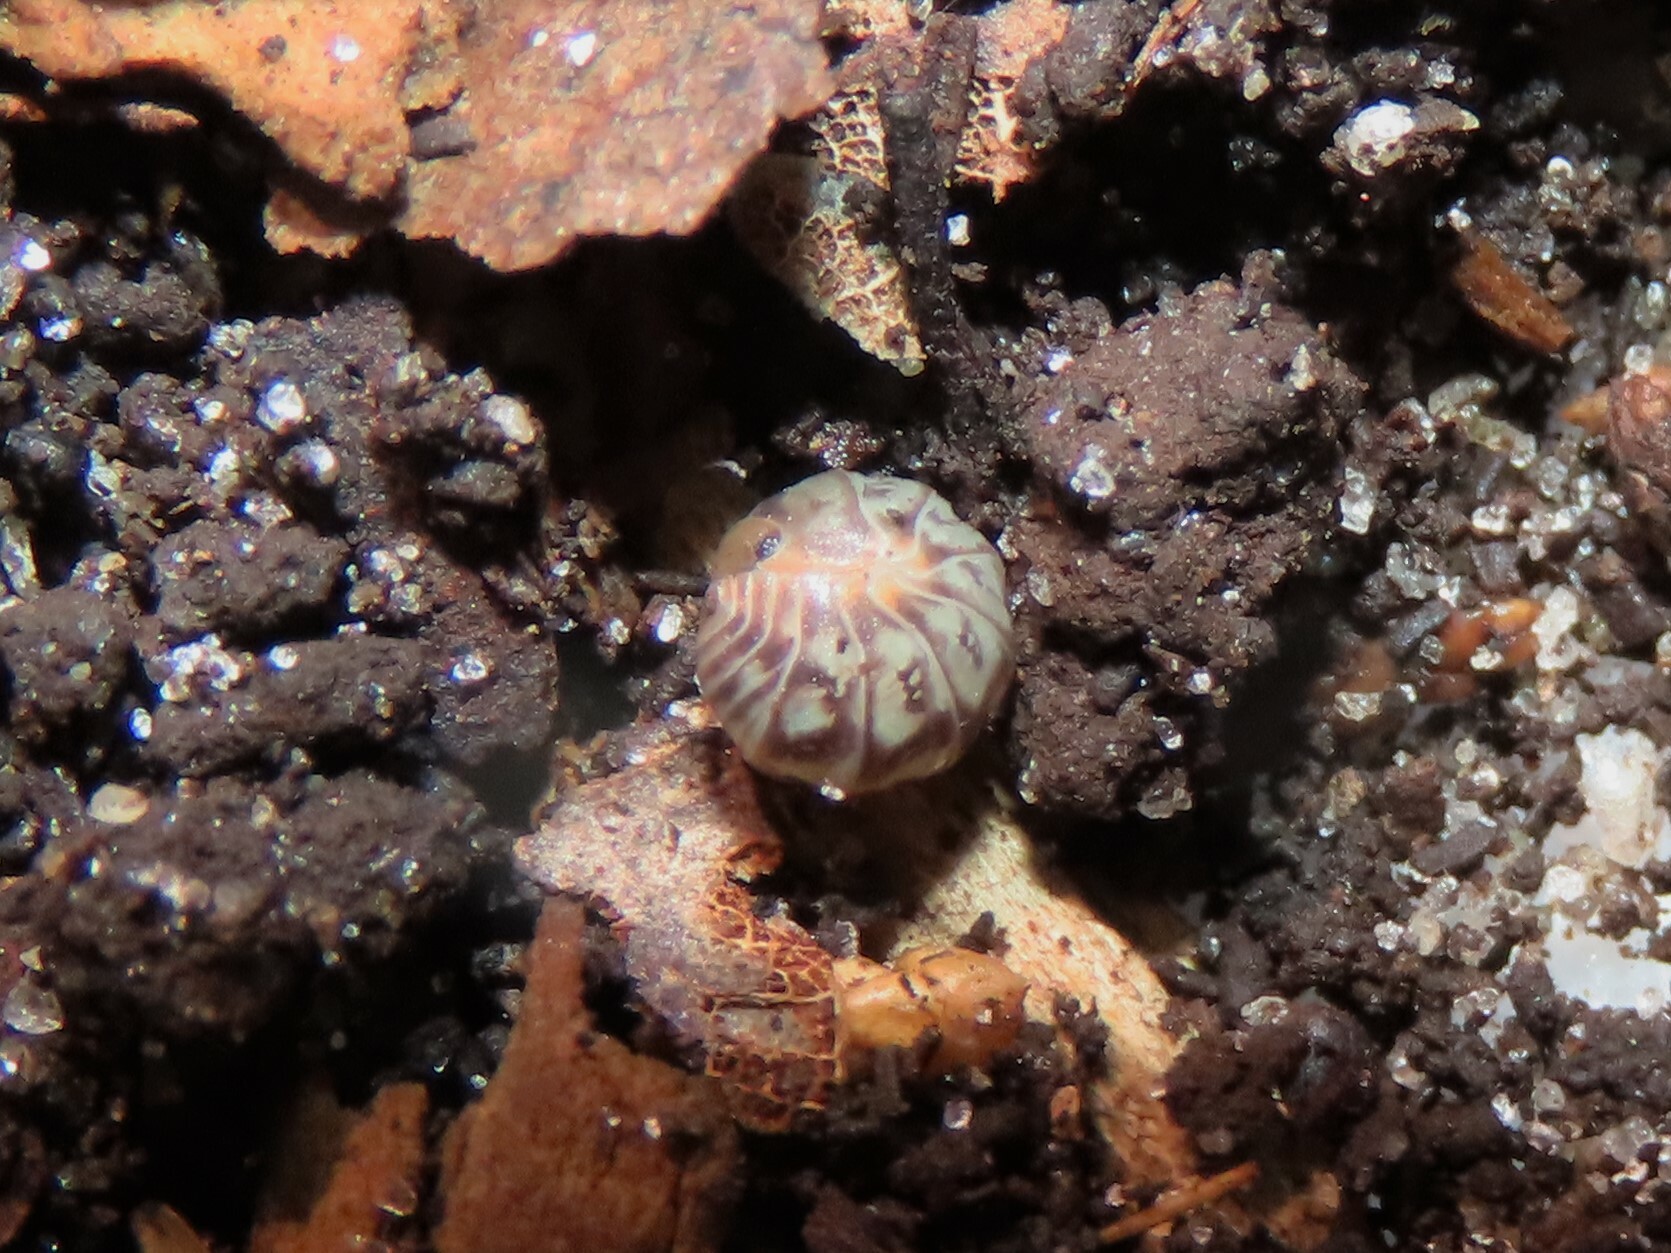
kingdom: Animalia
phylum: Arthropoda
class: Malacostraca
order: Isopoda
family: Armadillidae
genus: Venezillo
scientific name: Venezillo parvus
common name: Pillbug
